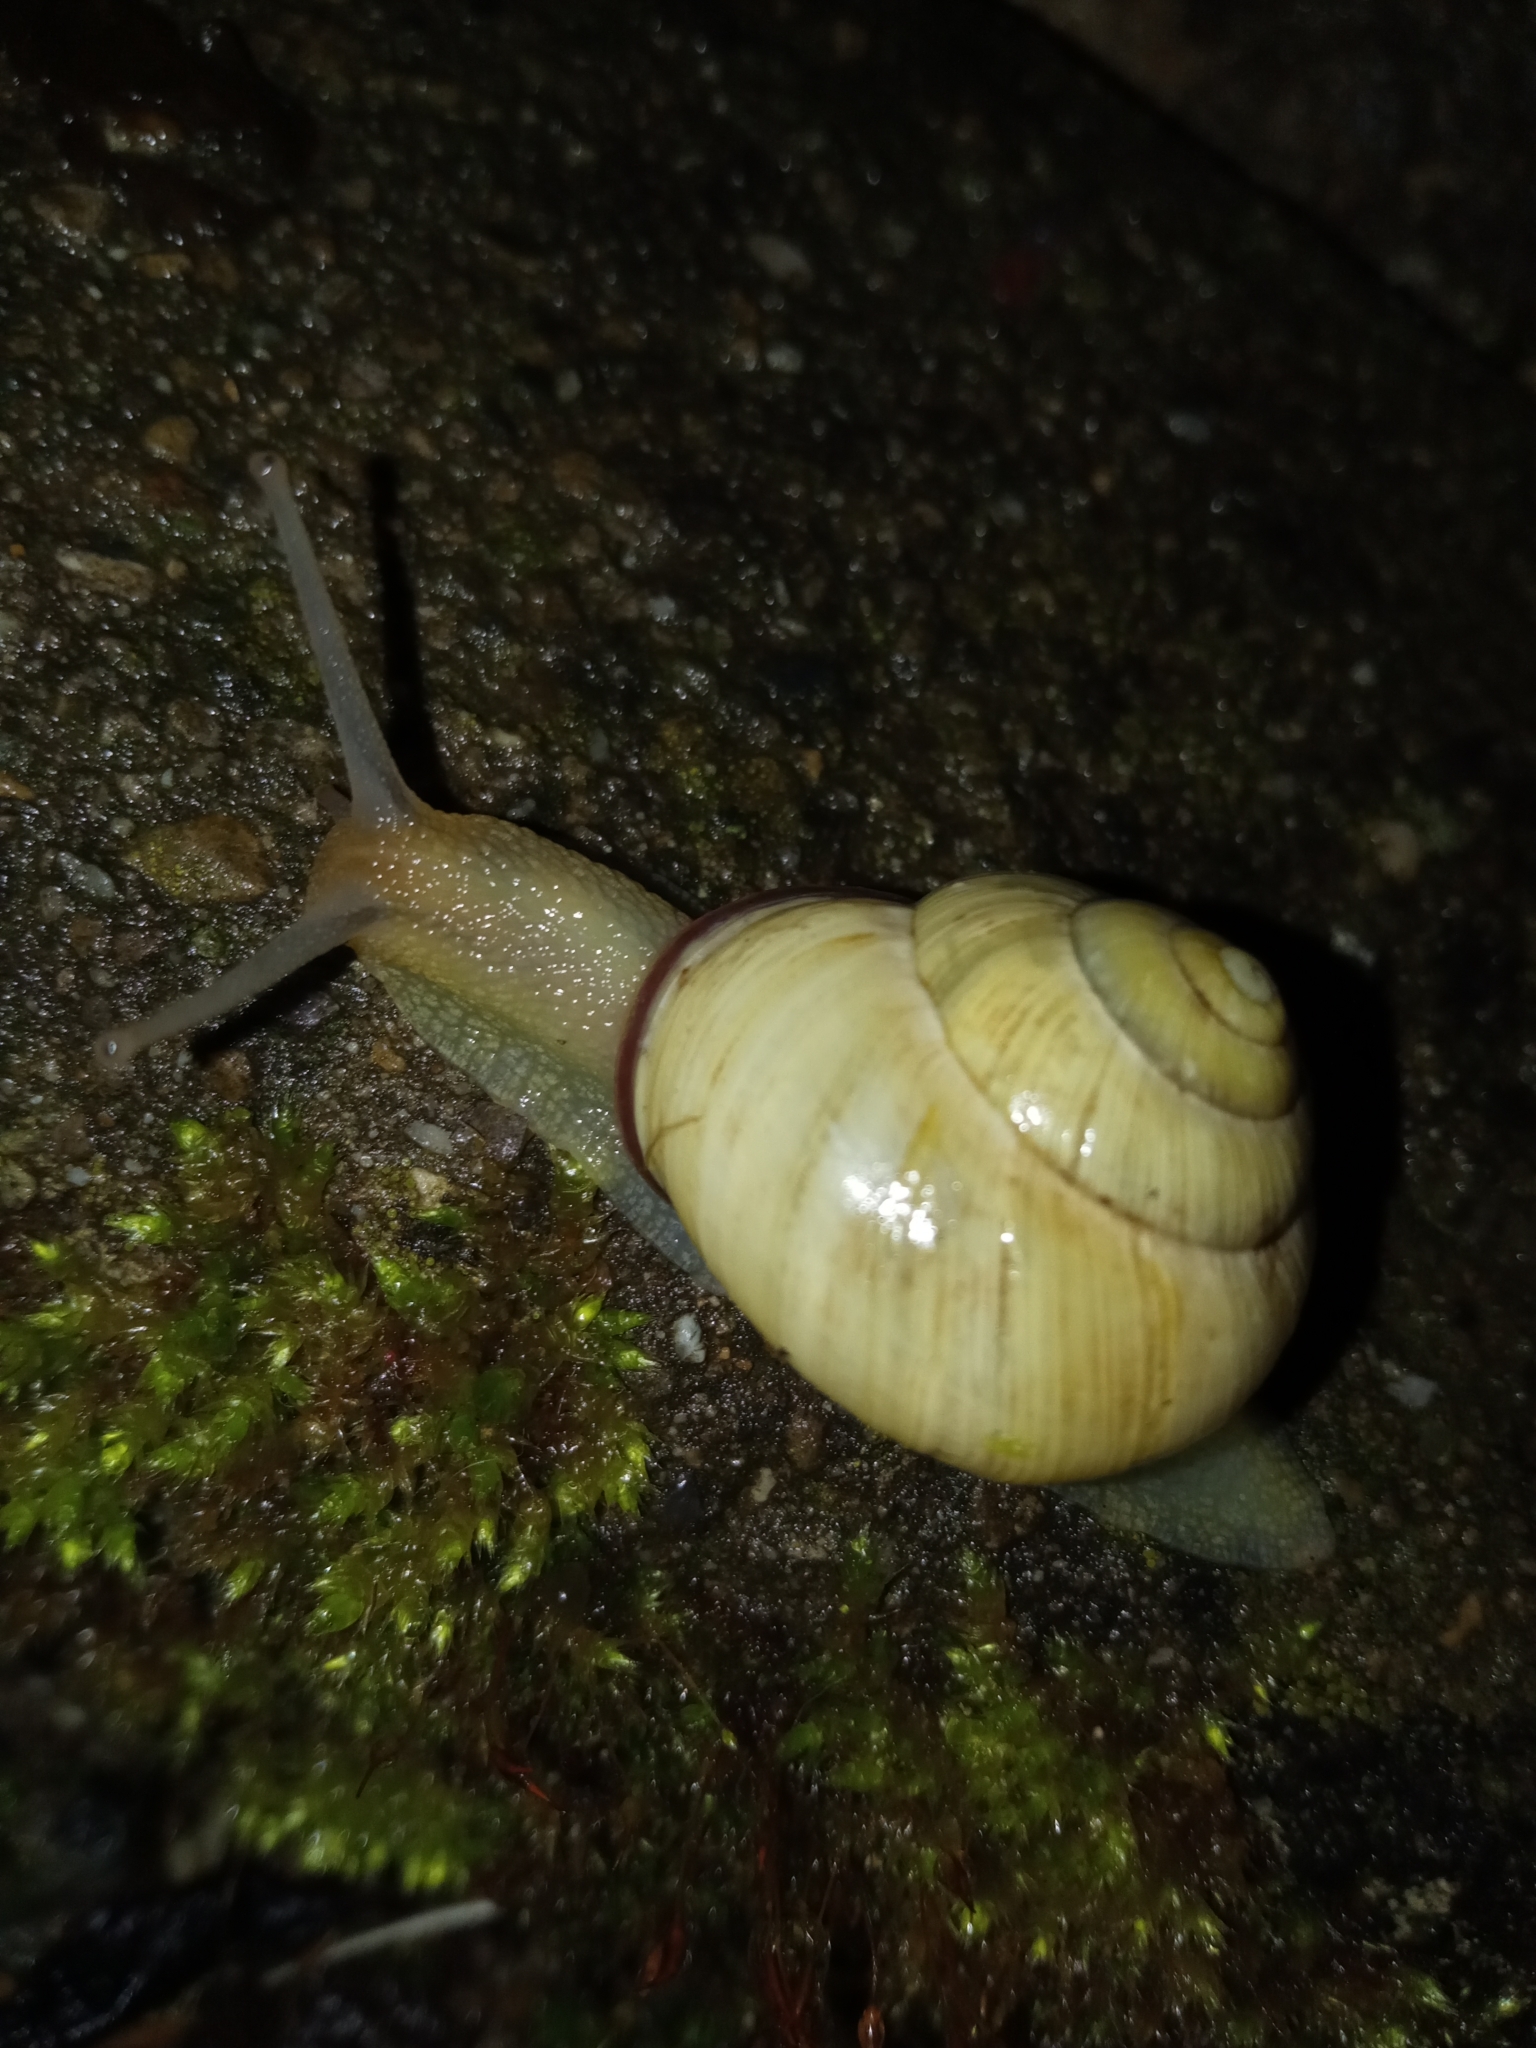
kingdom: Animalia
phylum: Mollusca
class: Gastropoda
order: Stylommatophora
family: Helicidae
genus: Cepaea
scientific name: Cepaea nemoralis
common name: Grovesnail
